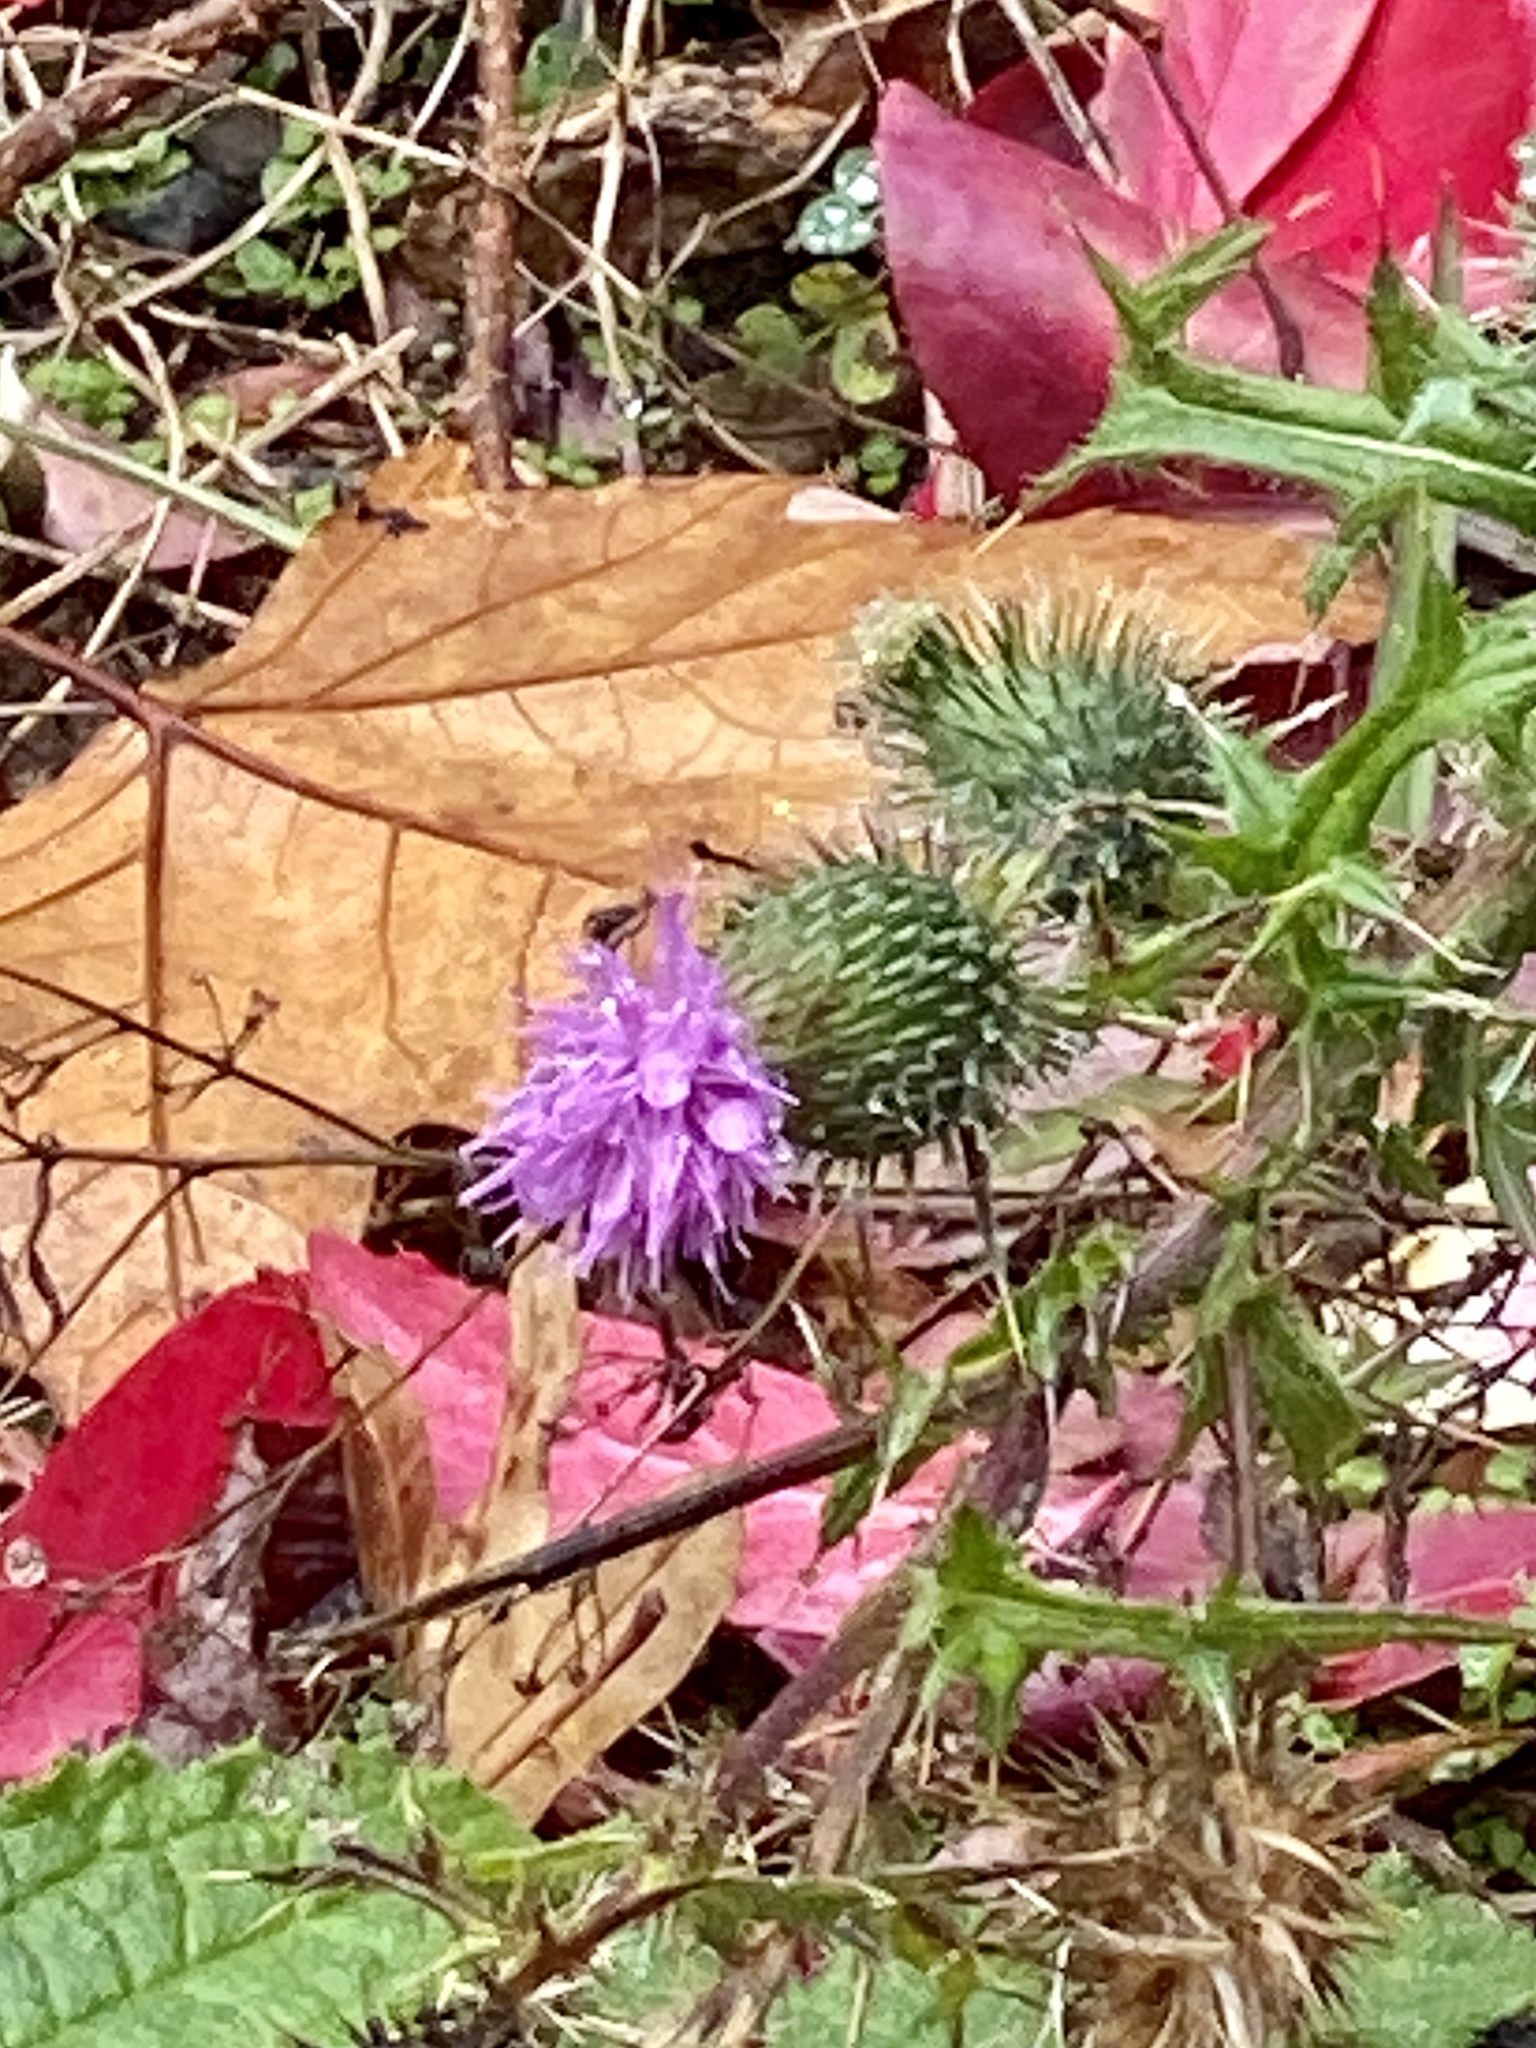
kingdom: Plantae
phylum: Tracheophyta
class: Magnoliopsida
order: Asterales
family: Asteraceae
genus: Cirsium
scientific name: Cirsium vulgare
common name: Bull thistle
